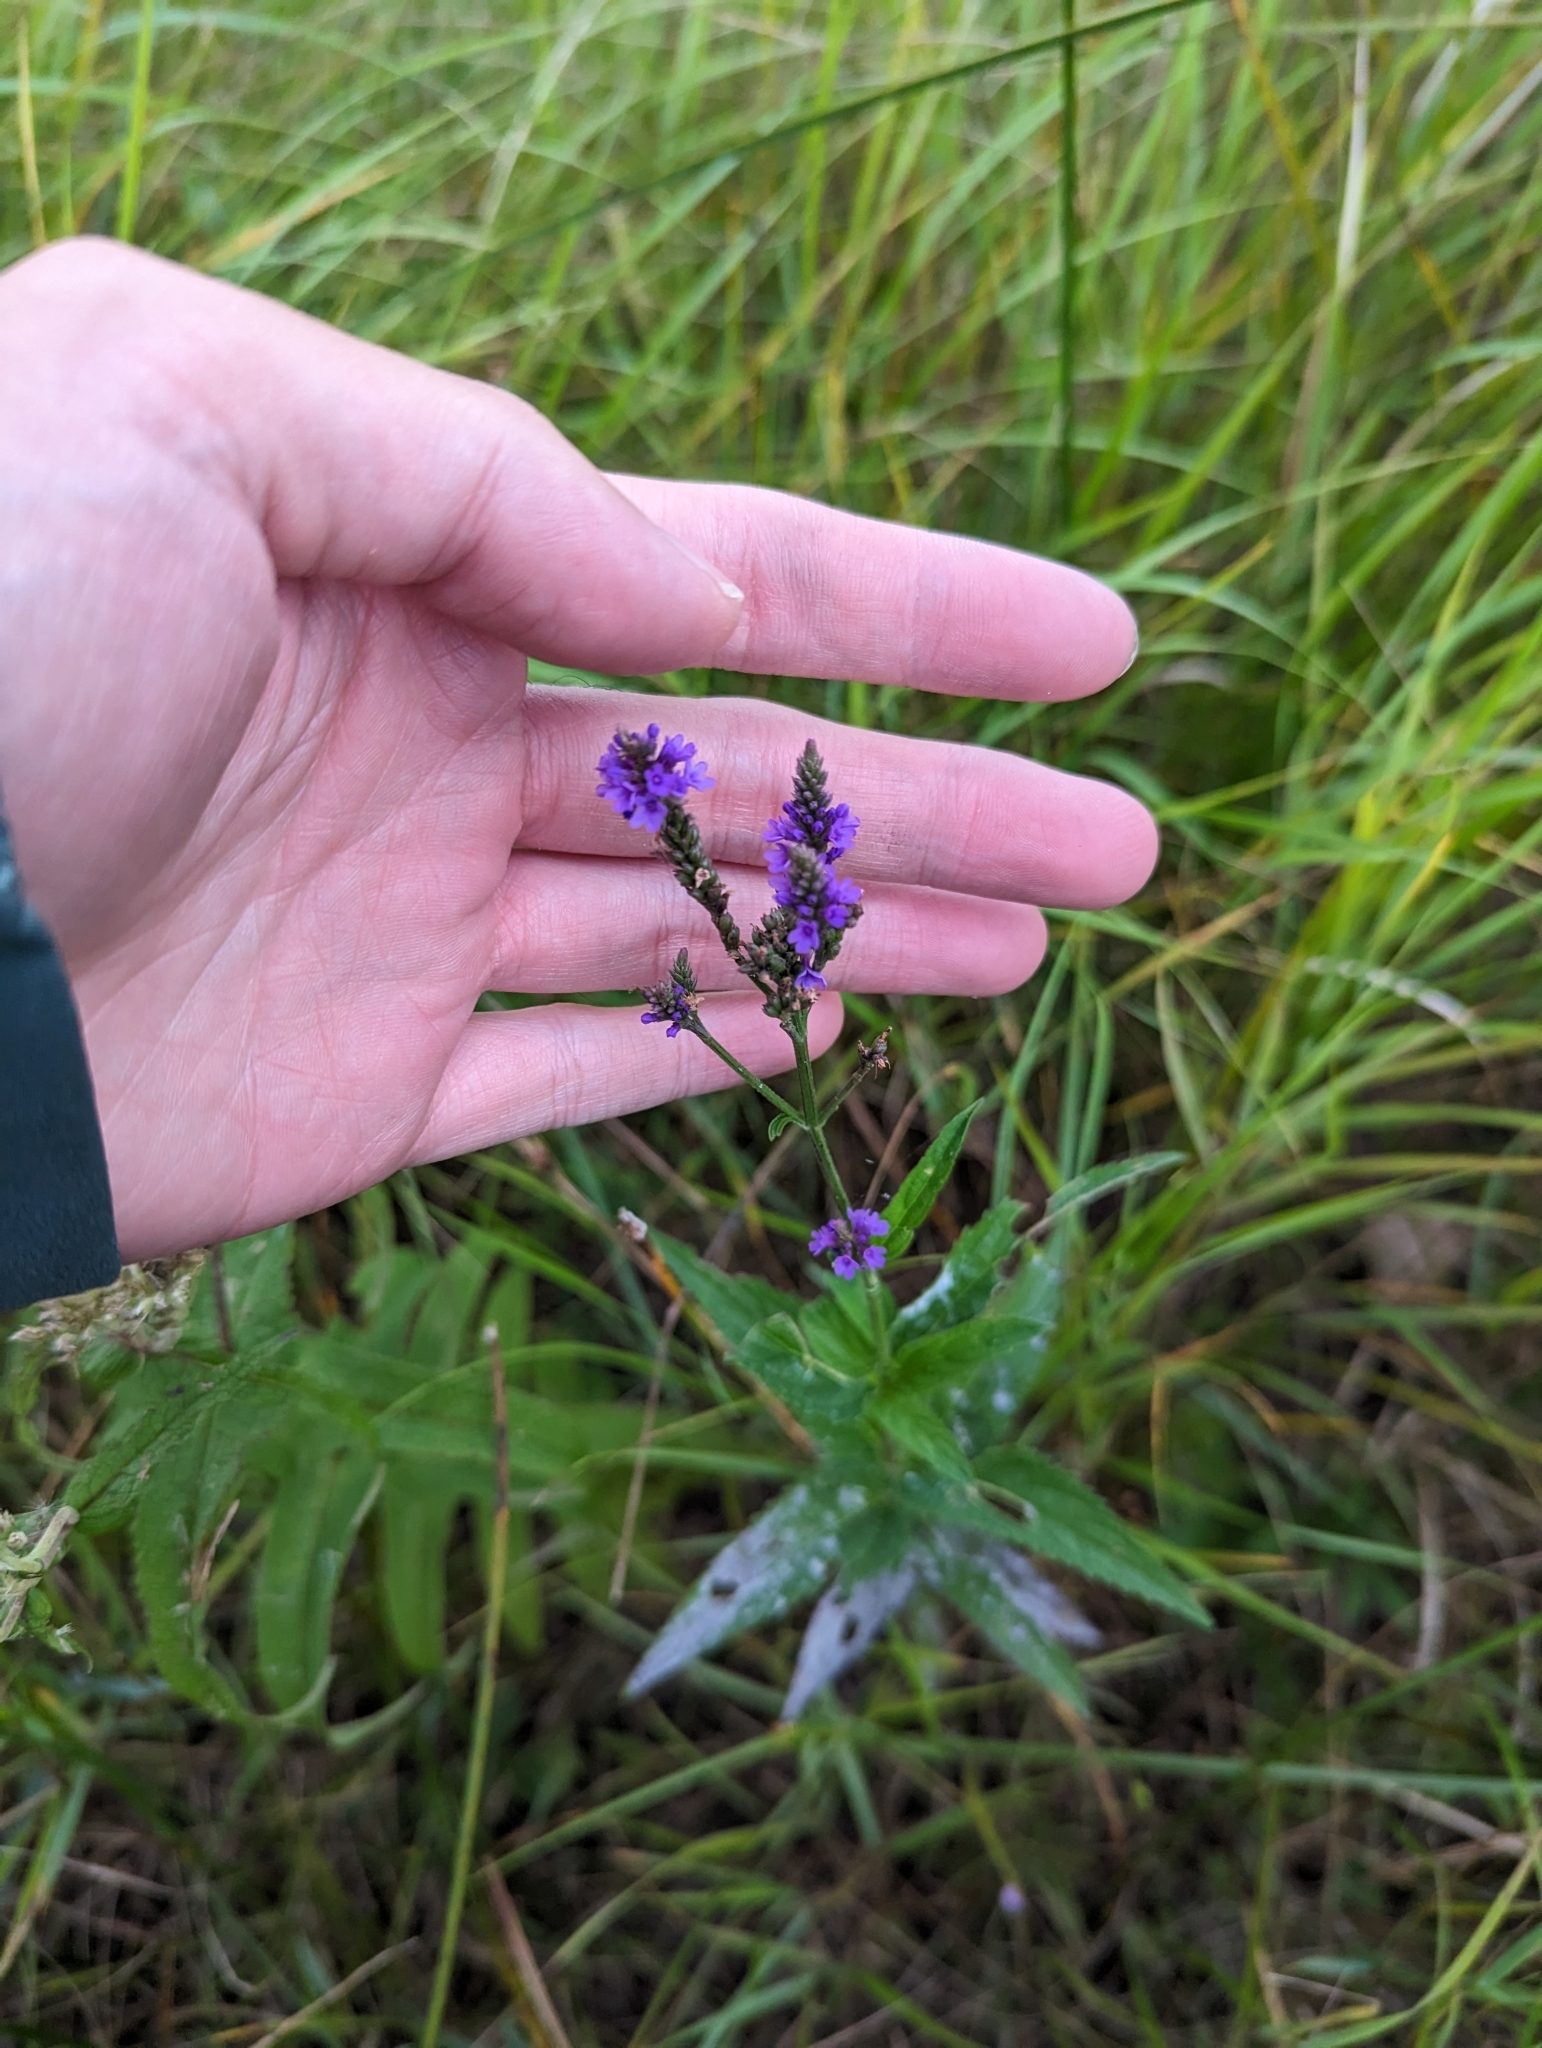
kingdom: Plantae
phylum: Tracheophyta
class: Magnoliopsida
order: Lamiales
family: Verbenaceae
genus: Verbena
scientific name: Verbena hastata
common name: American blue vervain
